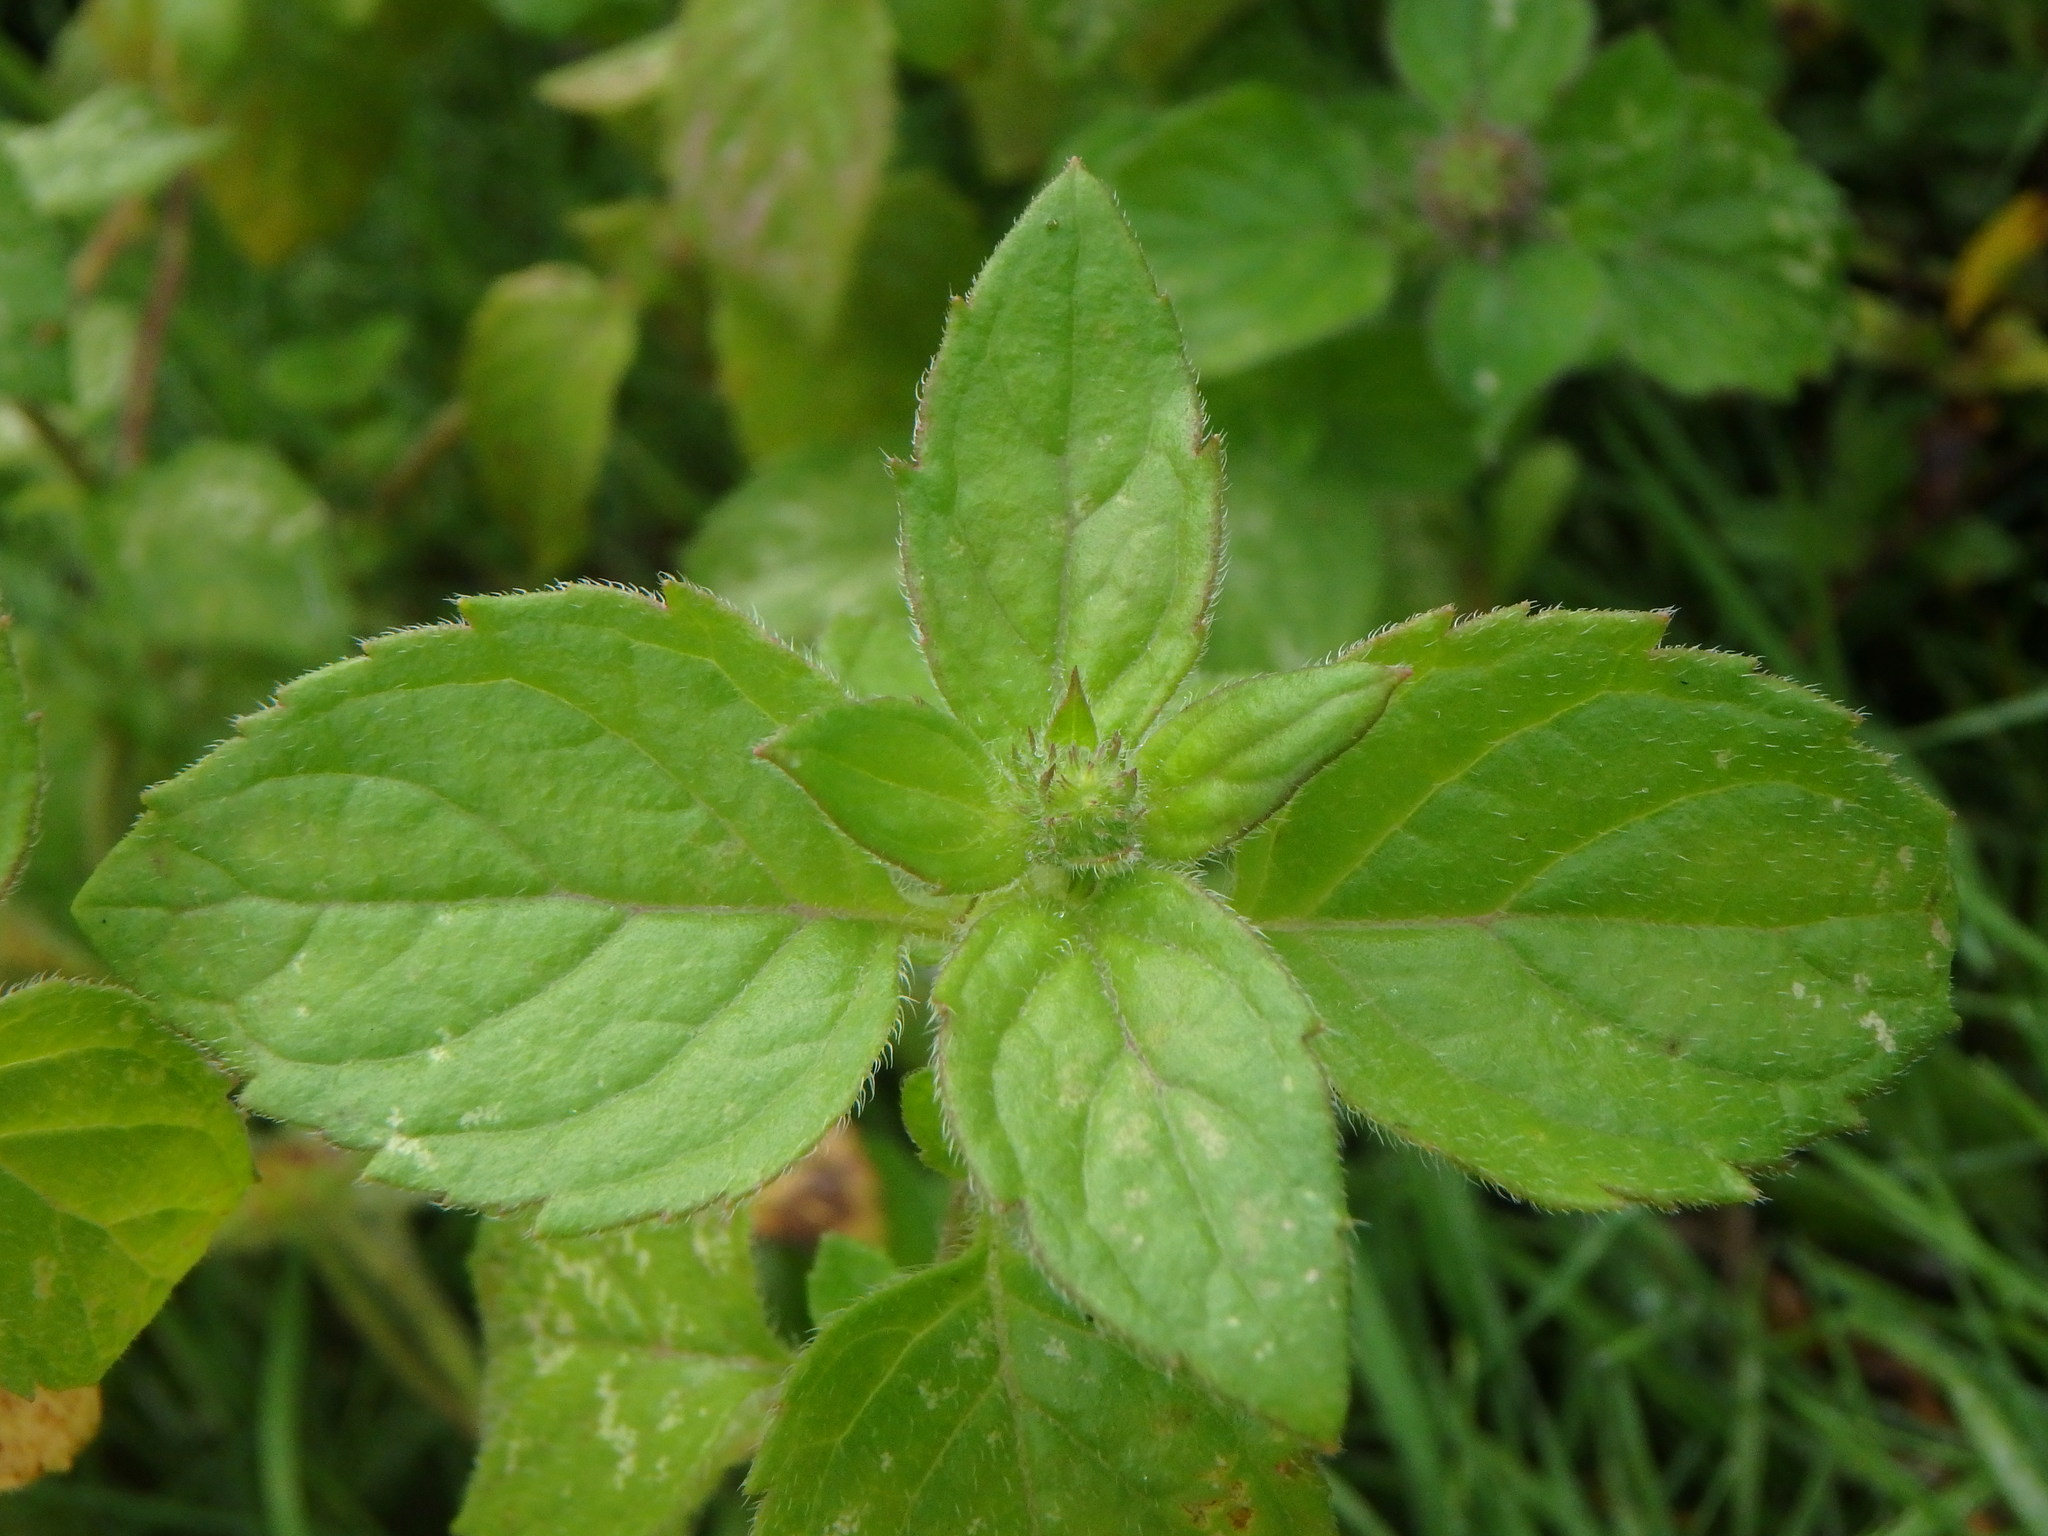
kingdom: Plantae
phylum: Tracheophyta
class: Magnoliopsida
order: Lamiales
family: Lamiaceae
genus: Mentha
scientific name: Mentha aquatica
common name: Water mint
